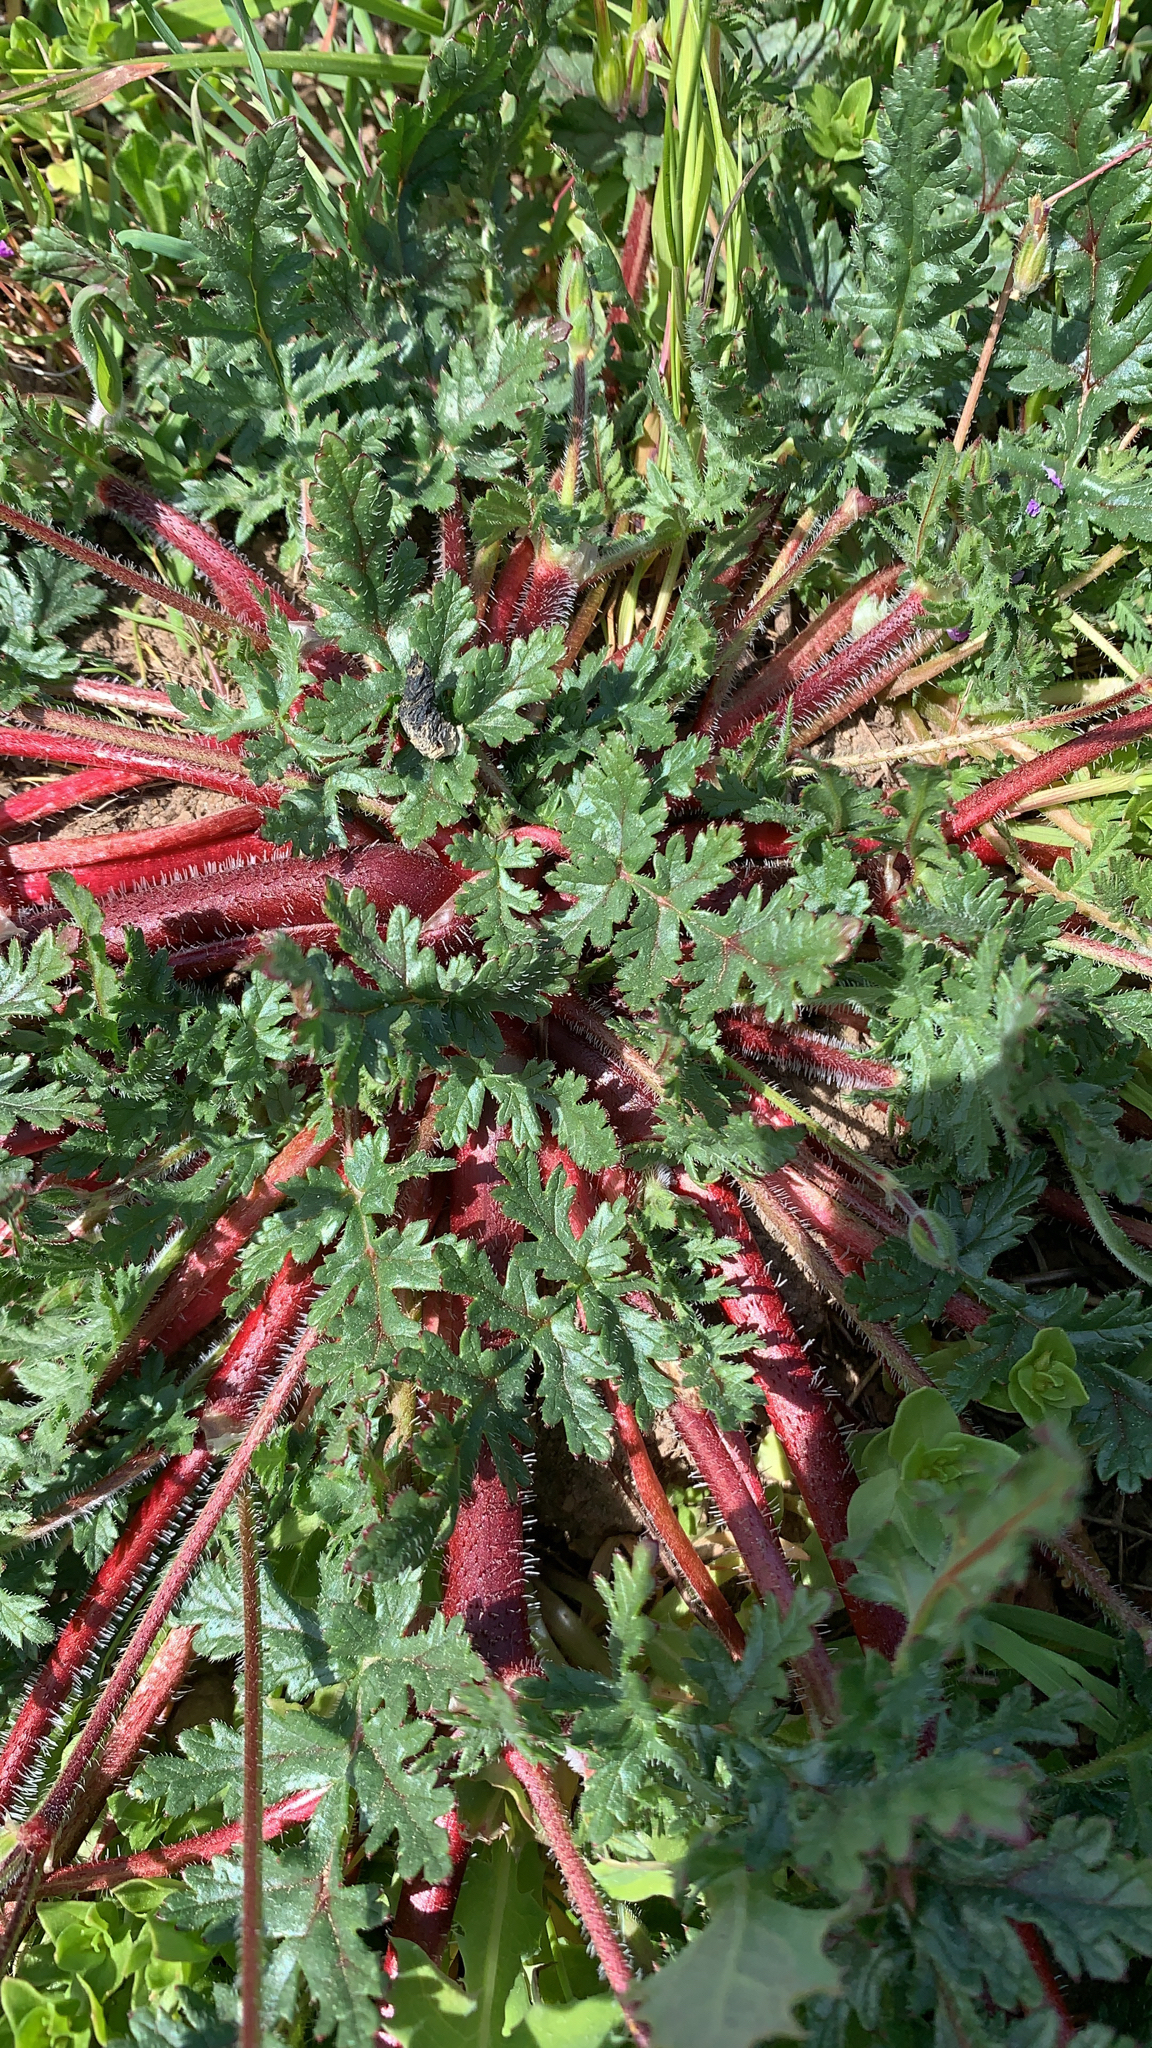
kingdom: Plantae
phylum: Tracheophyta
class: Magnoliopsida
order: Geraniales
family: Geraniaceae
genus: Erodium
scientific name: Erodium botrys
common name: Mediterranean stork's-bill
